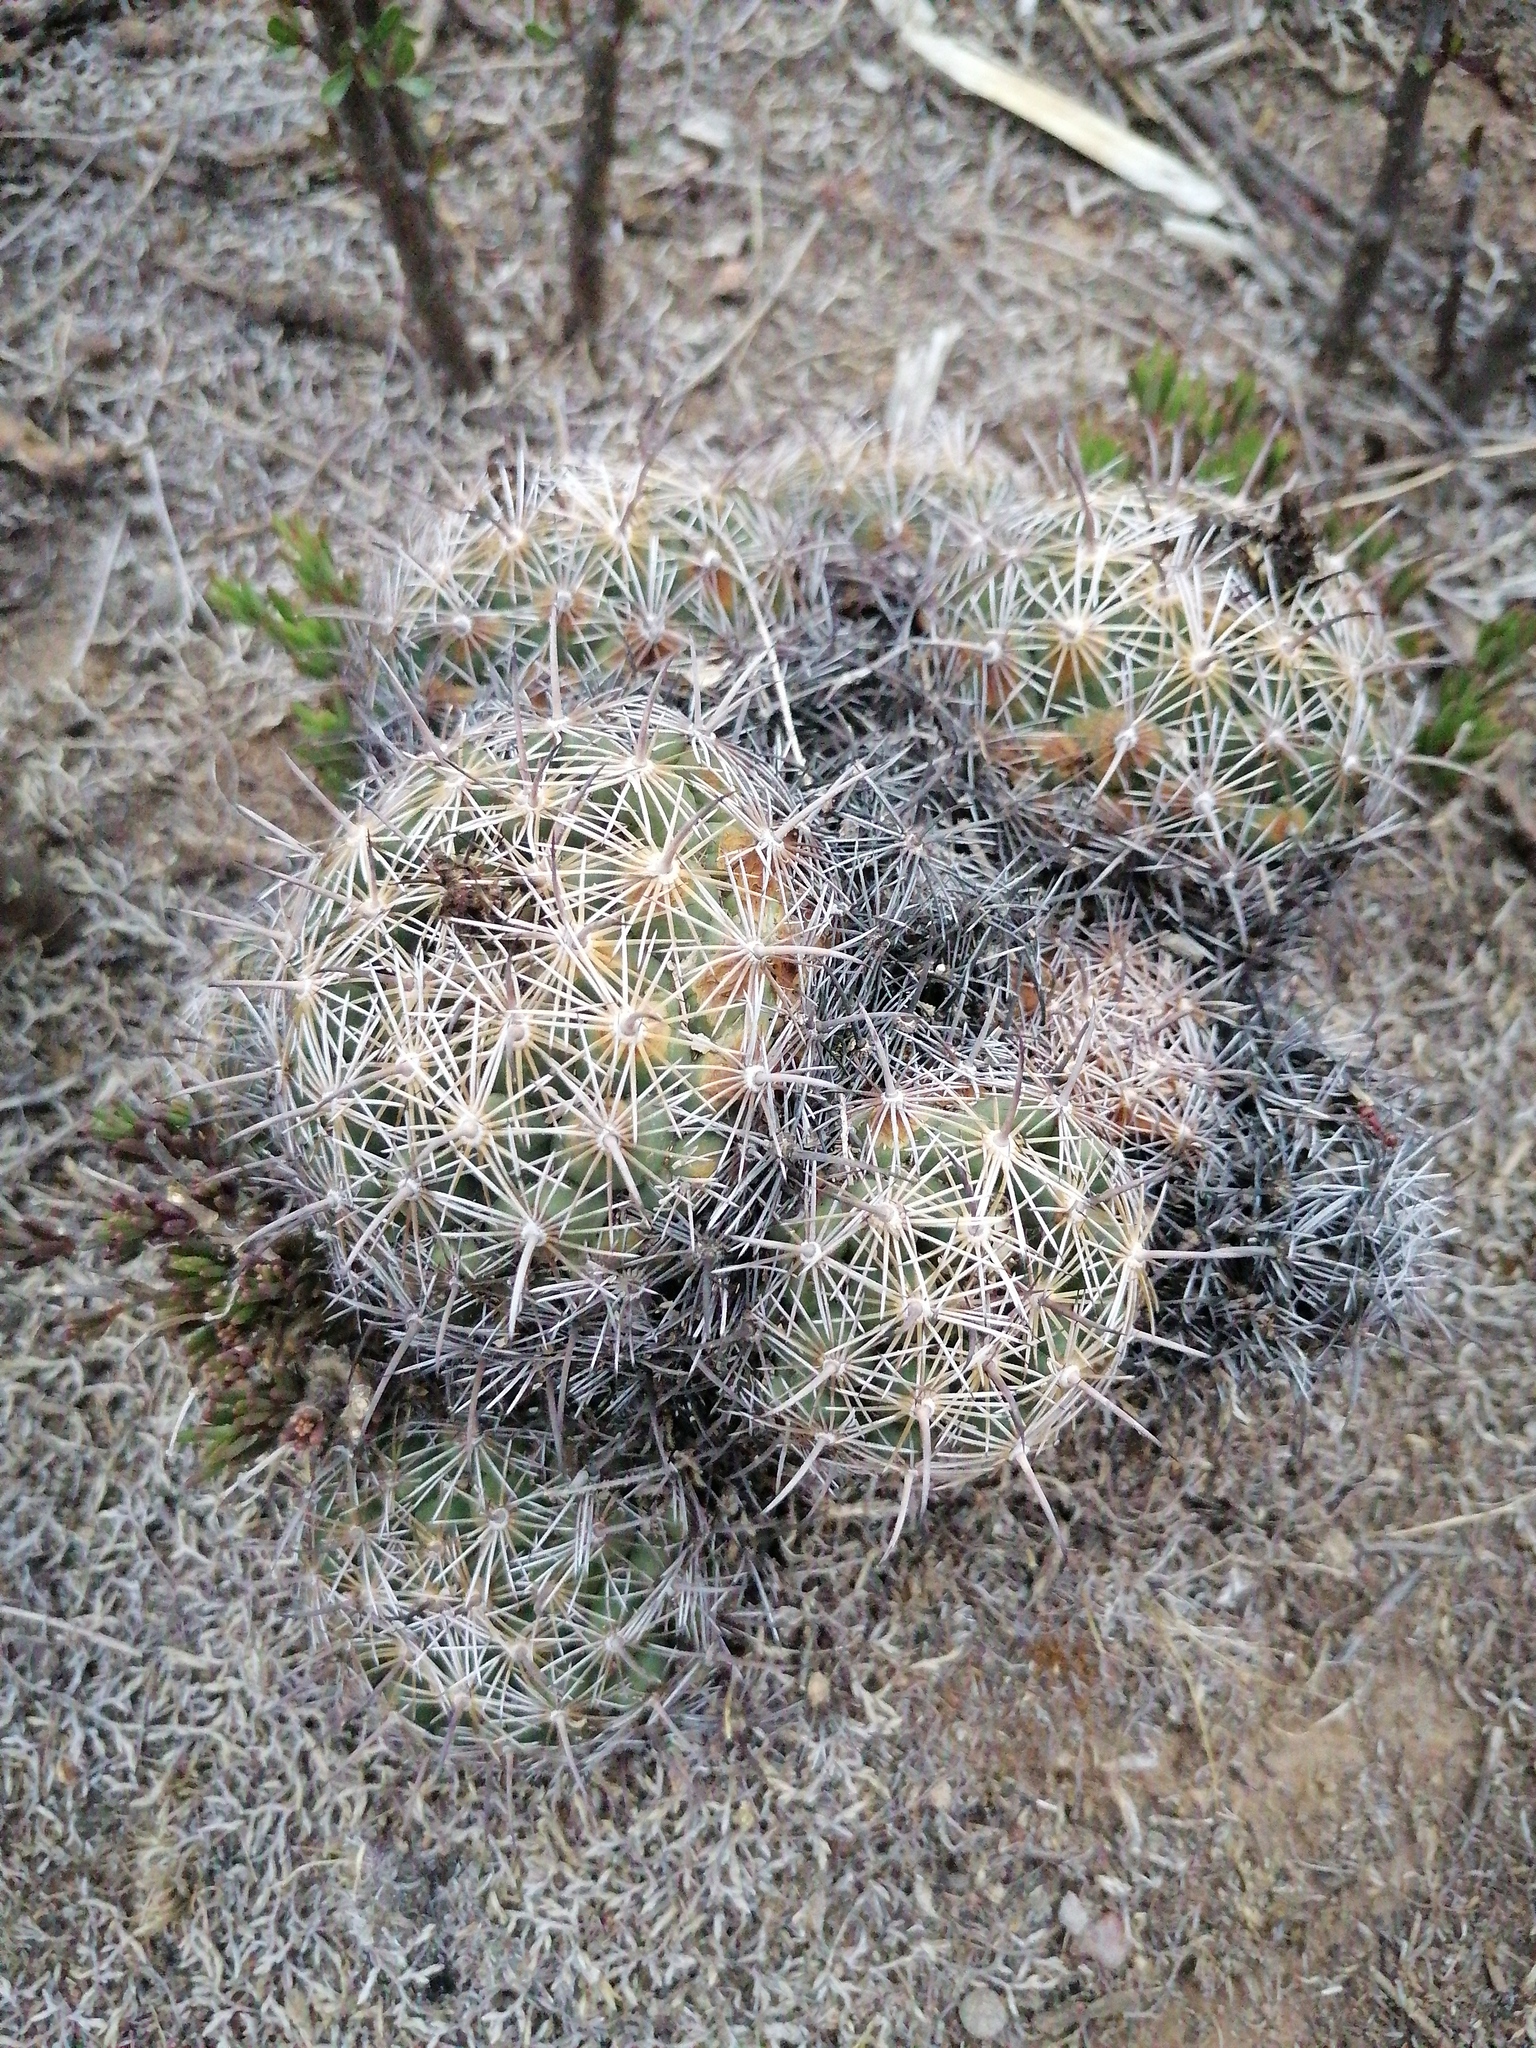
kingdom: Plantae
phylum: Tracheophyta
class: Magnoliopsida
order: Caryophyllales
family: Cactaceae
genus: Coryphantha
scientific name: Coryphantha cornifera
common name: Rhinoceros cactus
